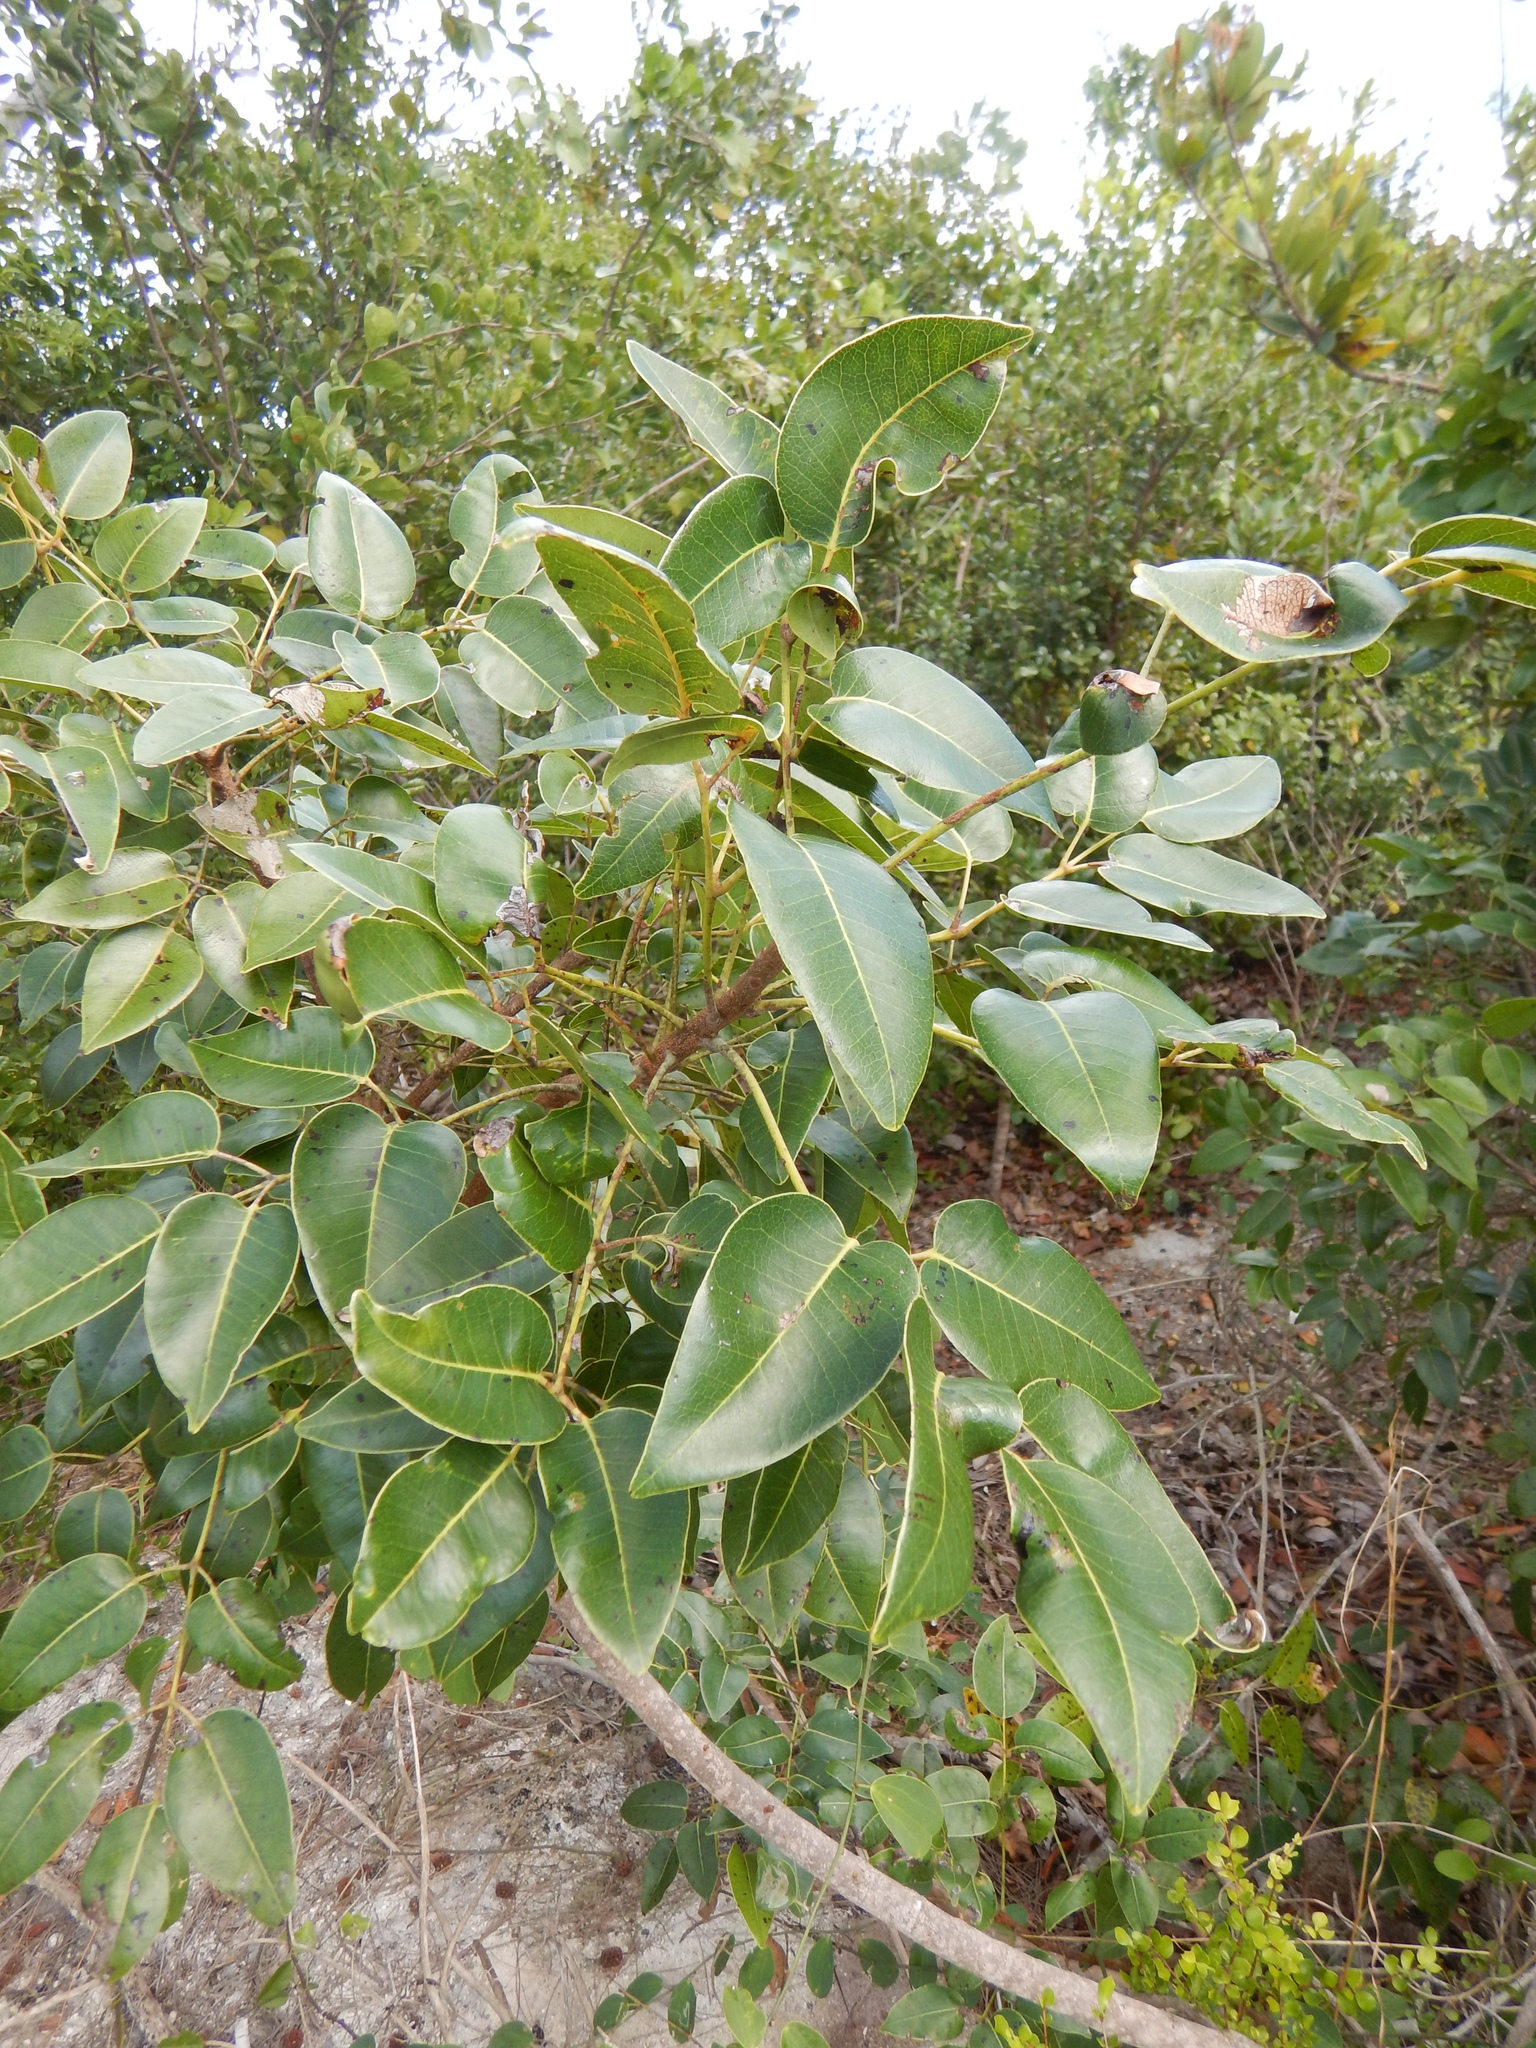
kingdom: Plantae
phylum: Tracheophyta
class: Magnoliopsida
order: Sapindales
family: Anacardiaceae
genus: Metopium
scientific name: Metopium toxiferum
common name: Florida poisontree
